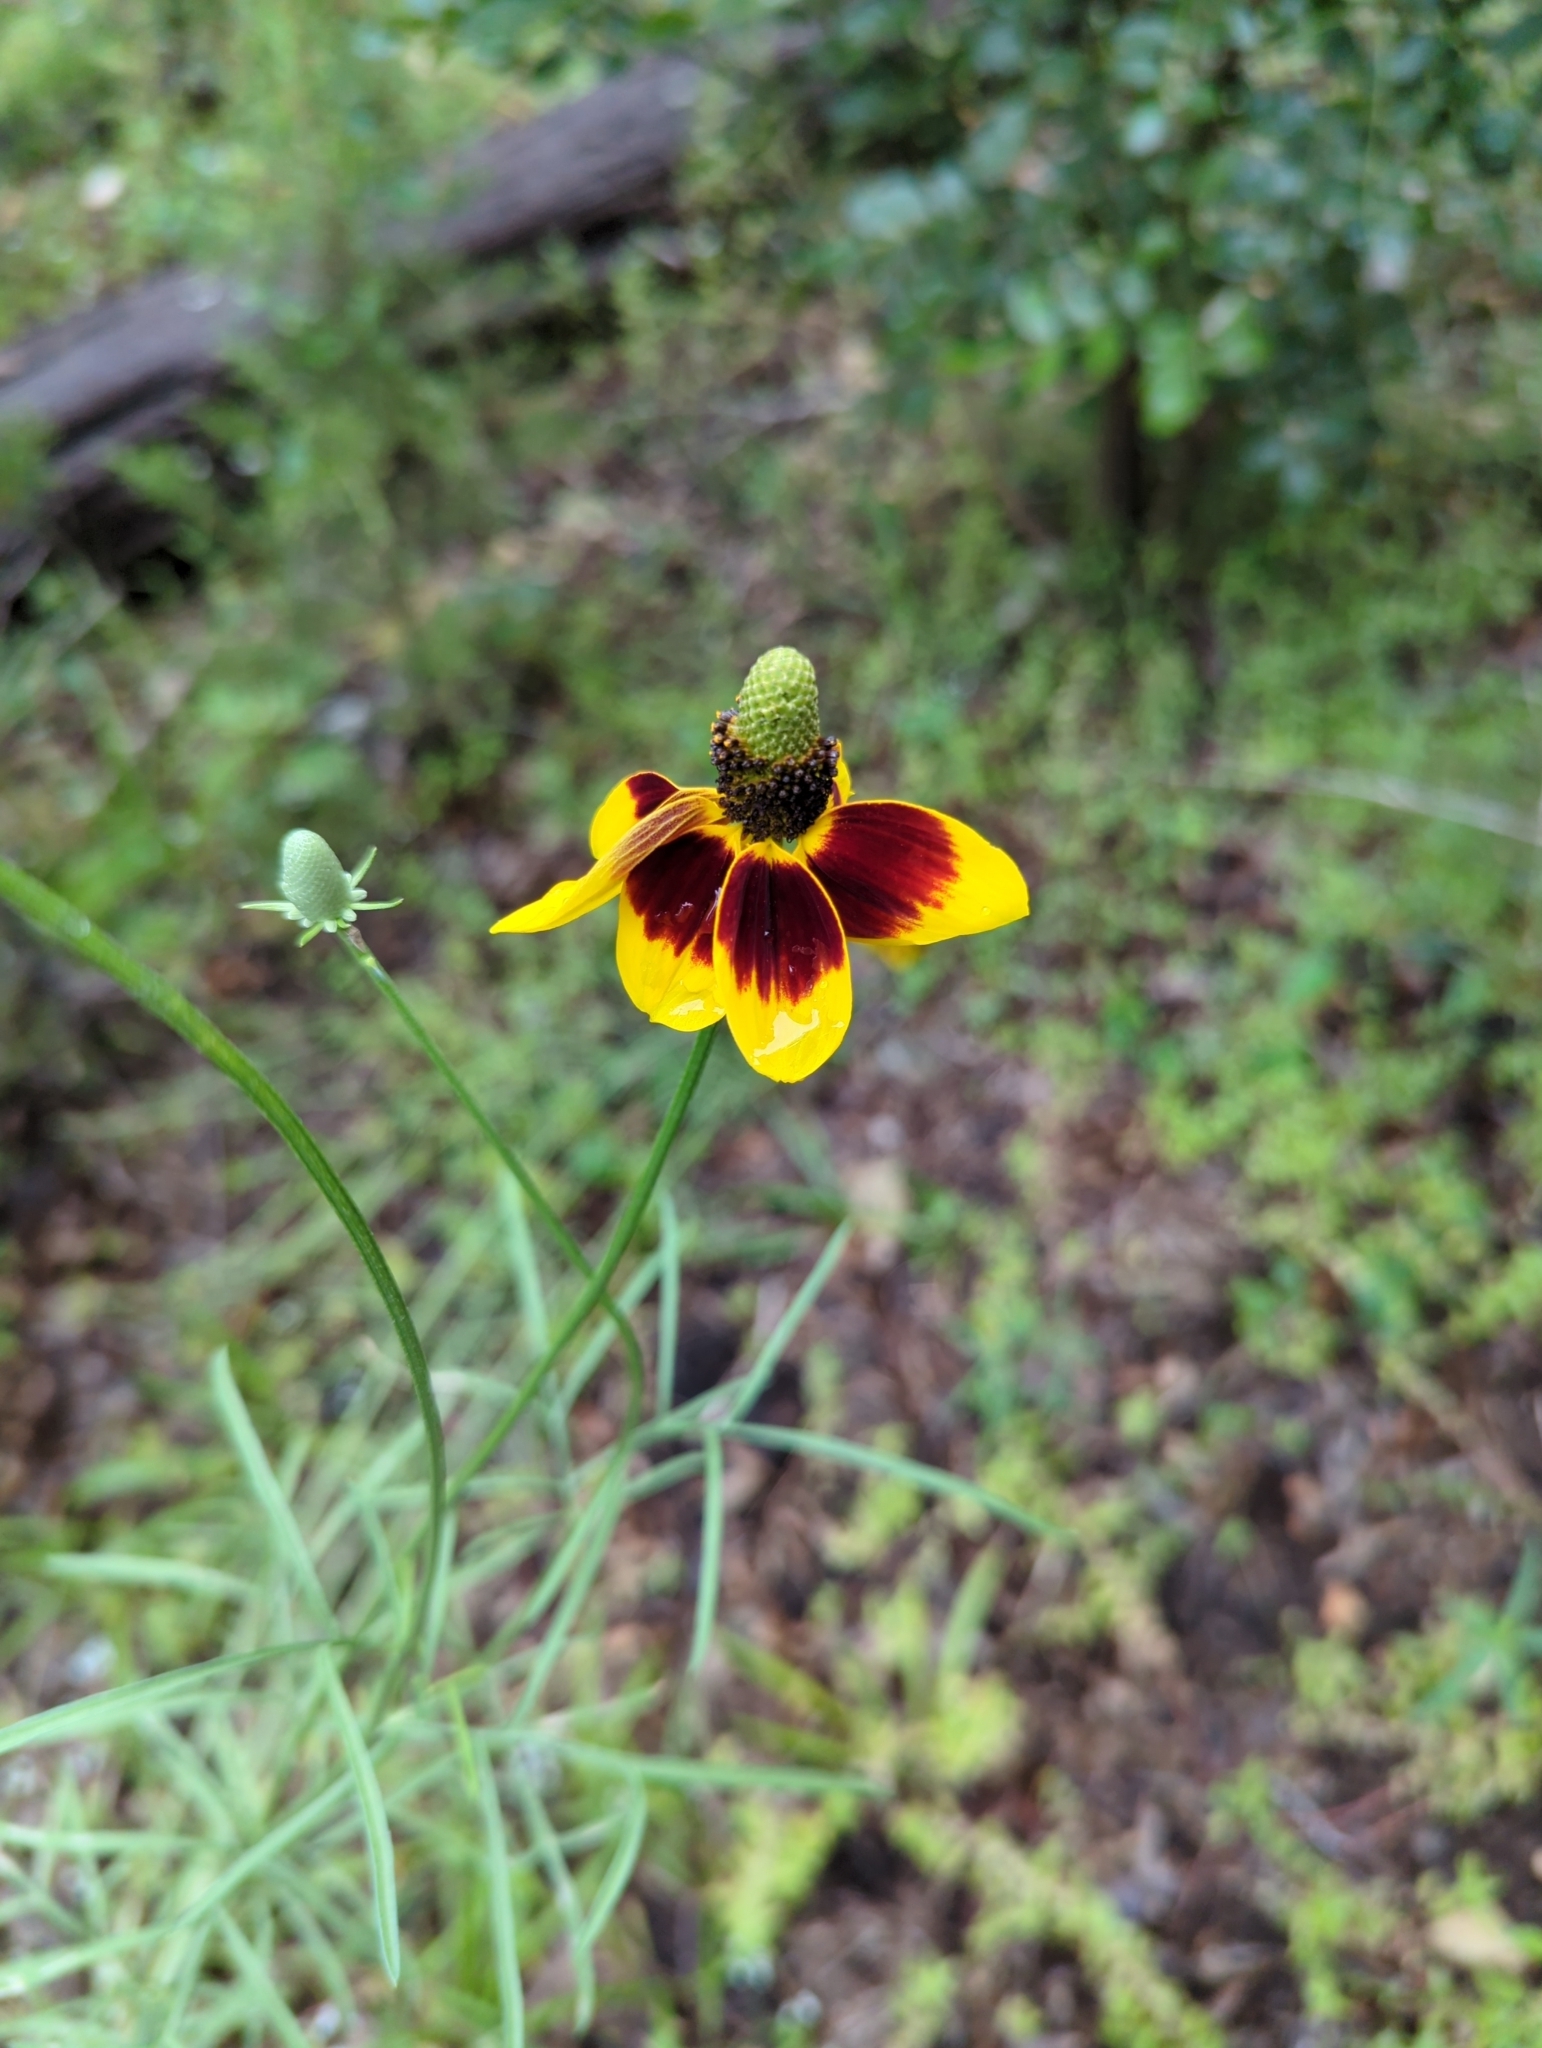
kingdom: Plantae
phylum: Tracheophyta
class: Magnoliopsida
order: Asterales
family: Asteraceae
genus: Ratibida
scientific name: Ratibida columnifera
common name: Prairie coneflower
